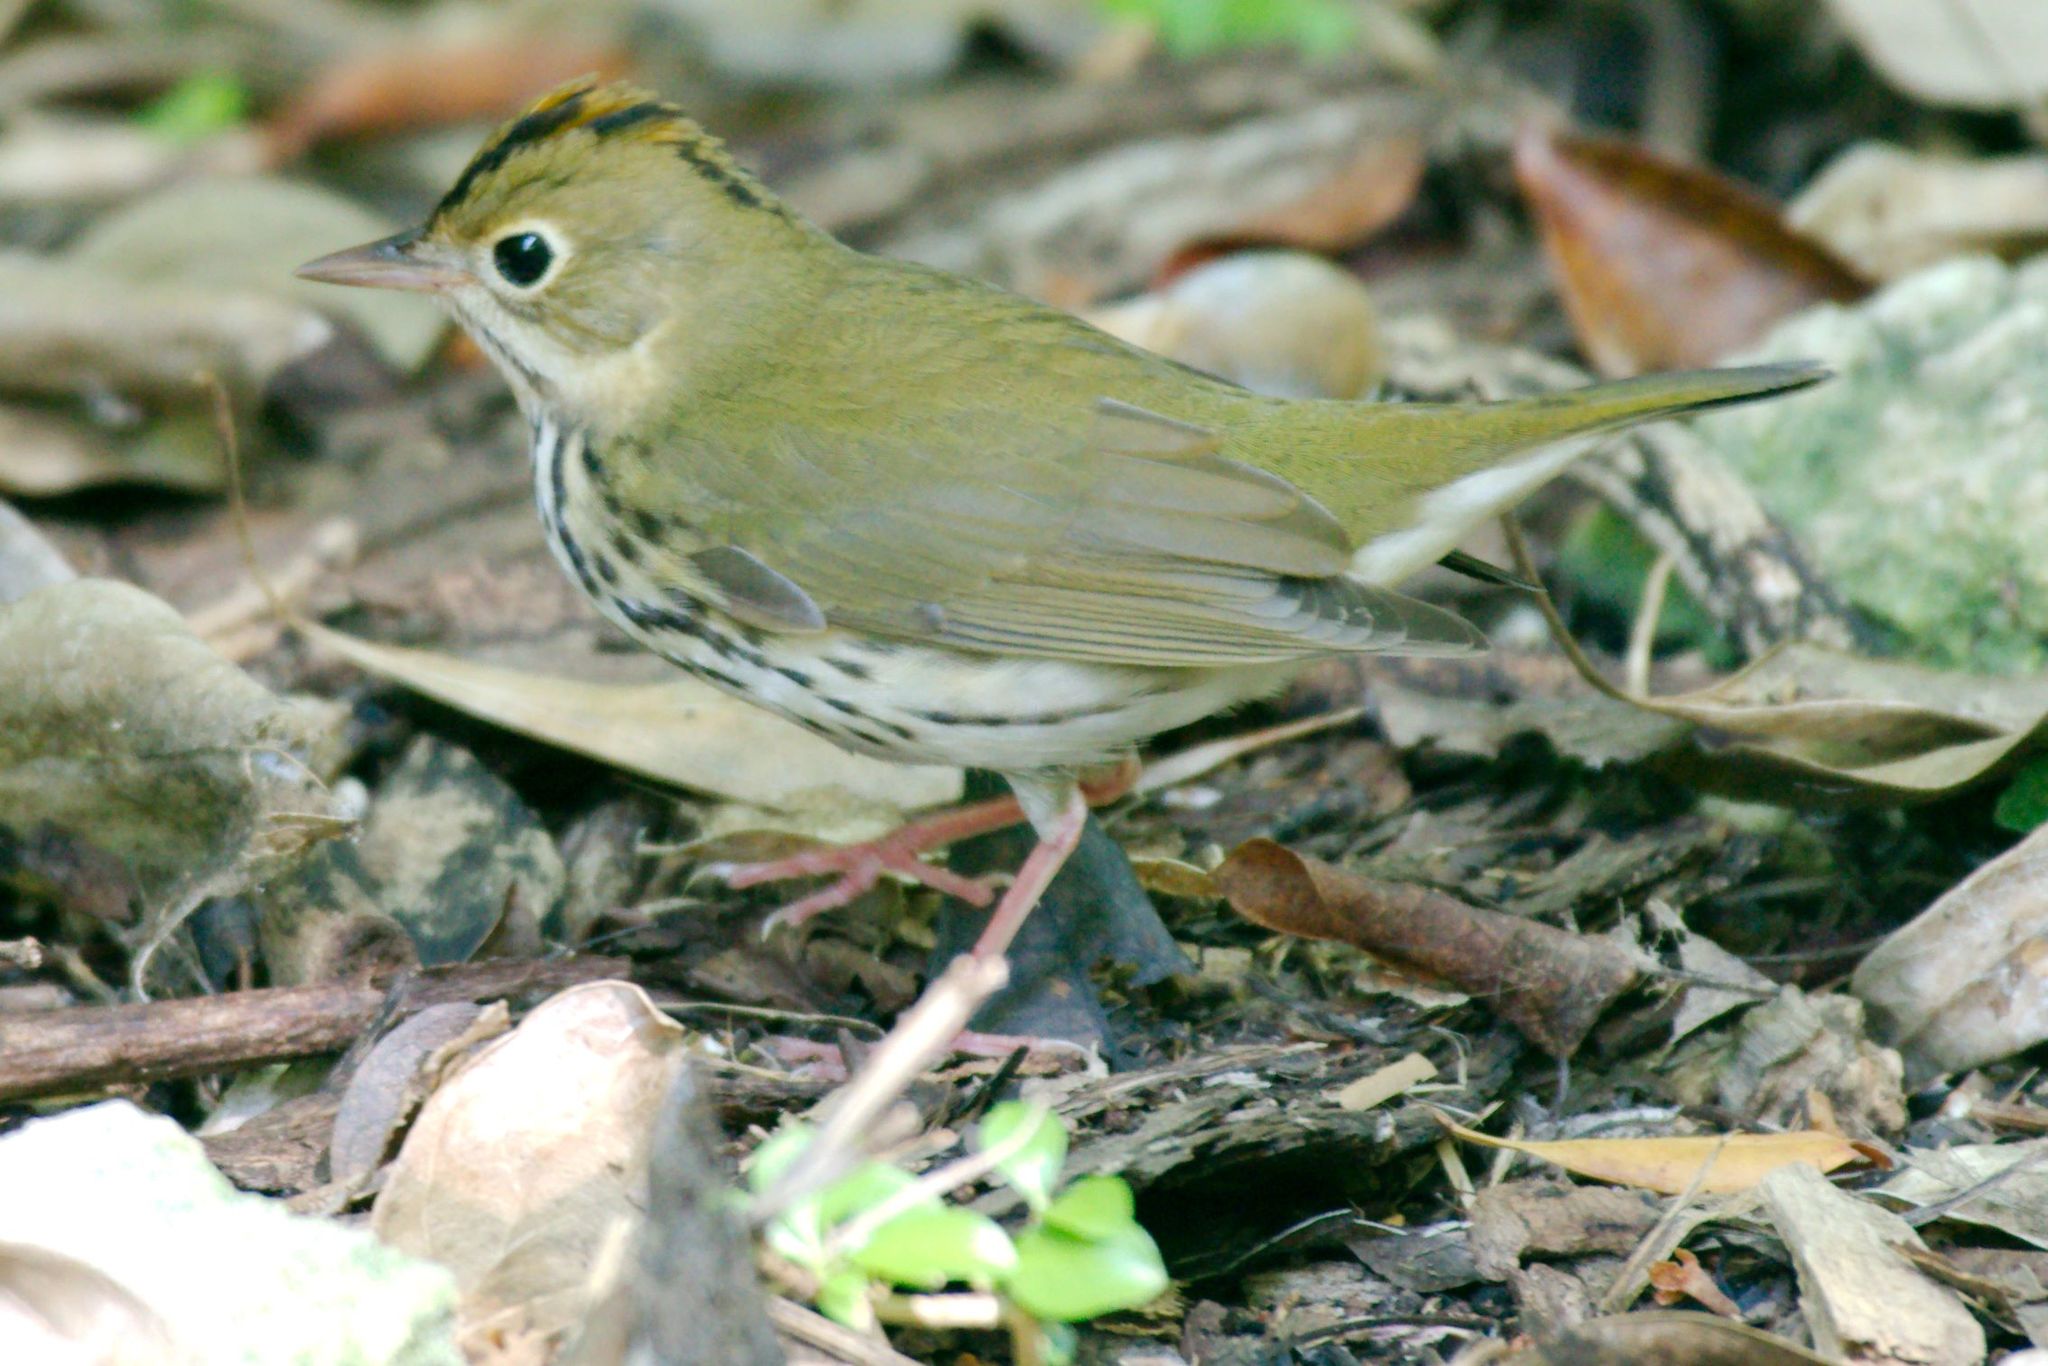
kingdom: Animalia
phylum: Chordata
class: Aves
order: Passeriformes
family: Parulidae
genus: Seiurus
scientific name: Seiurus aurocapilla
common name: Ovenbird
